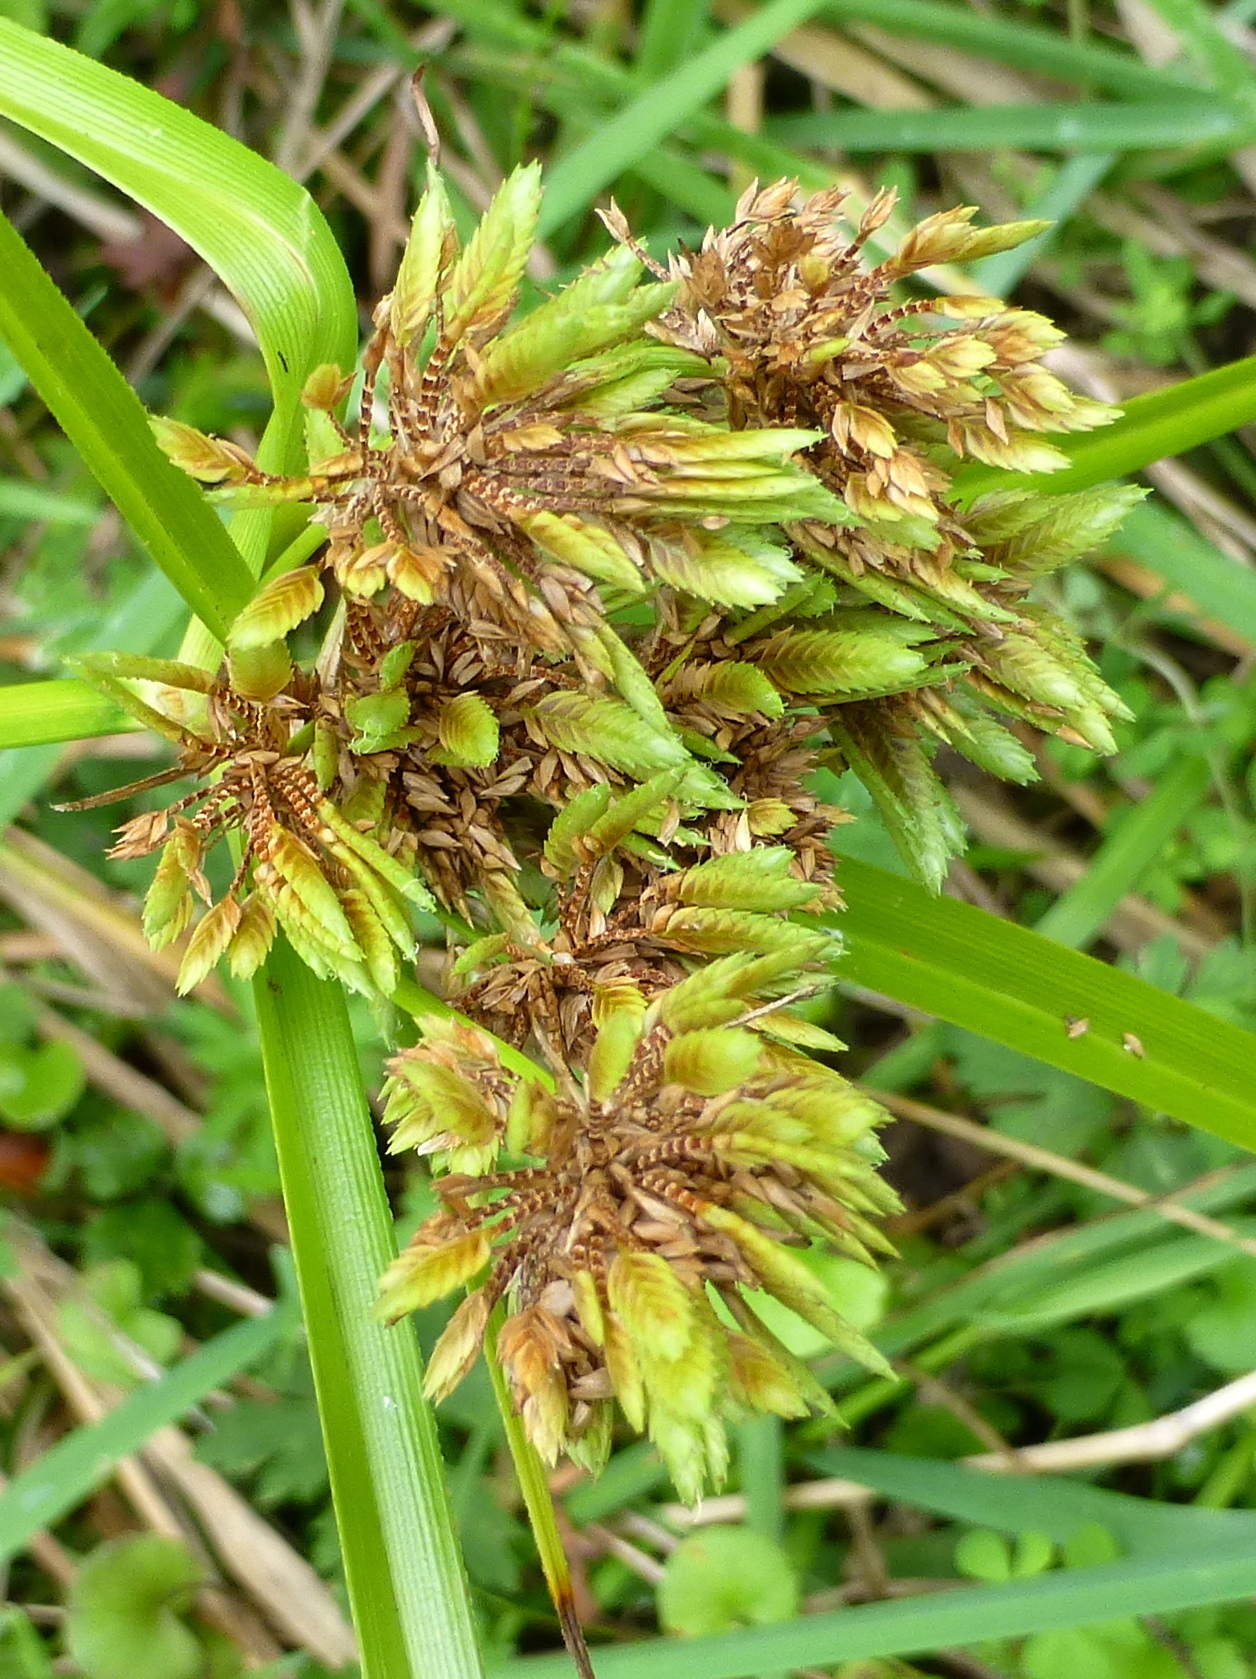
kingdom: Plantae
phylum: Tracheophyta
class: Liliopsida
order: Poales
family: Cyperaceae
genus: Cyperus
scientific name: Cyperus eragrostis
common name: Tall flatsedge
